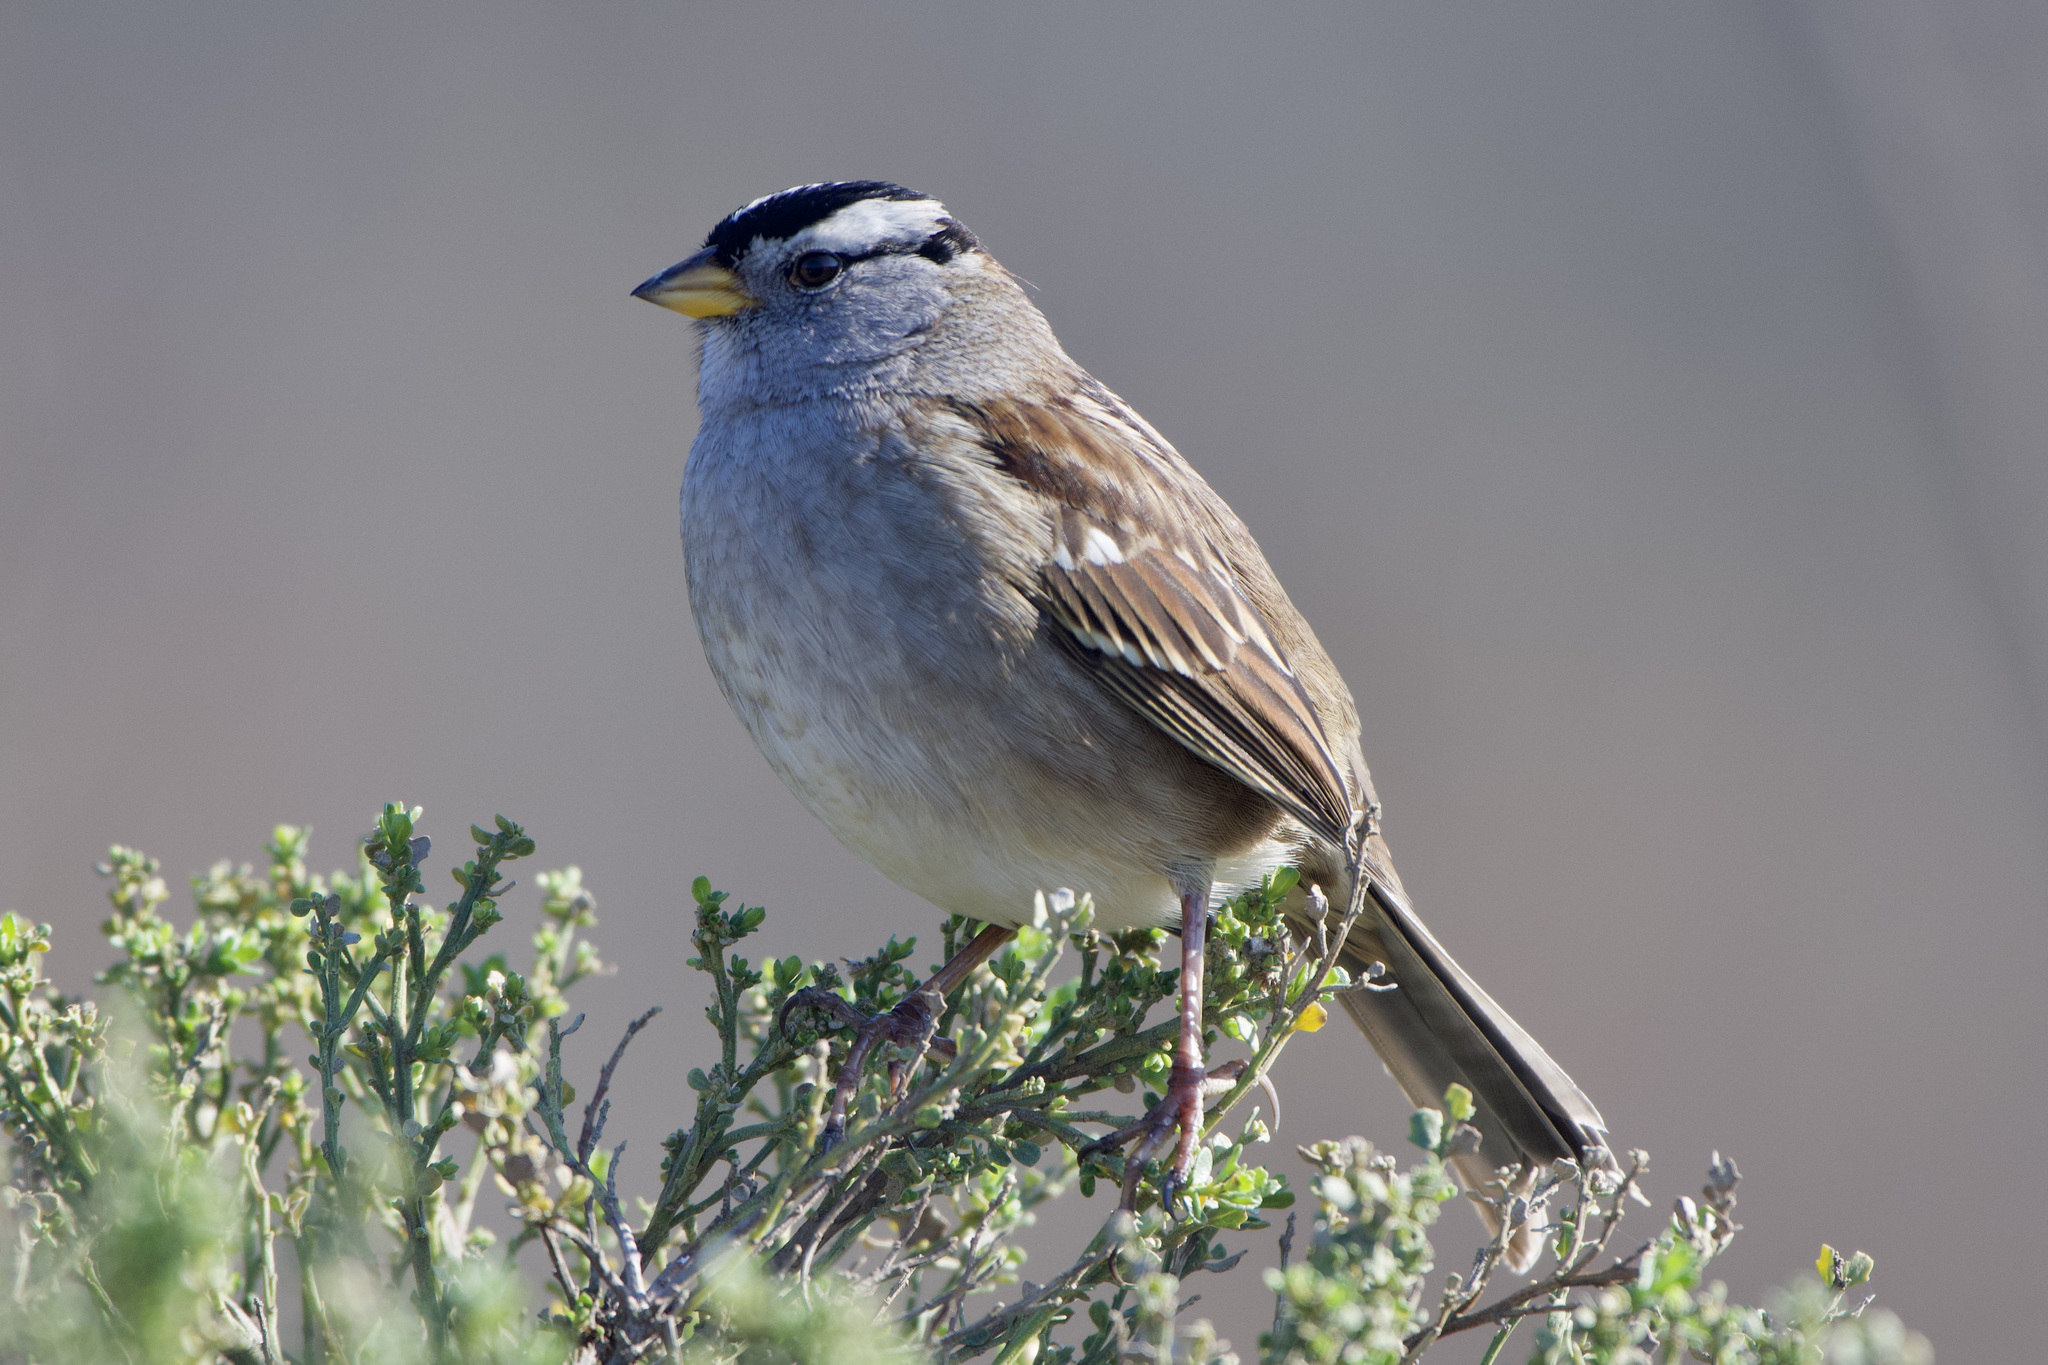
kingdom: Animalia
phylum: Chordata
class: Aves
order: Passeriformes
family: Passerellidae
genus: Zonotrichia
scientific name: Zonotrichia leucophrys
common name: White-crowned sparrow
